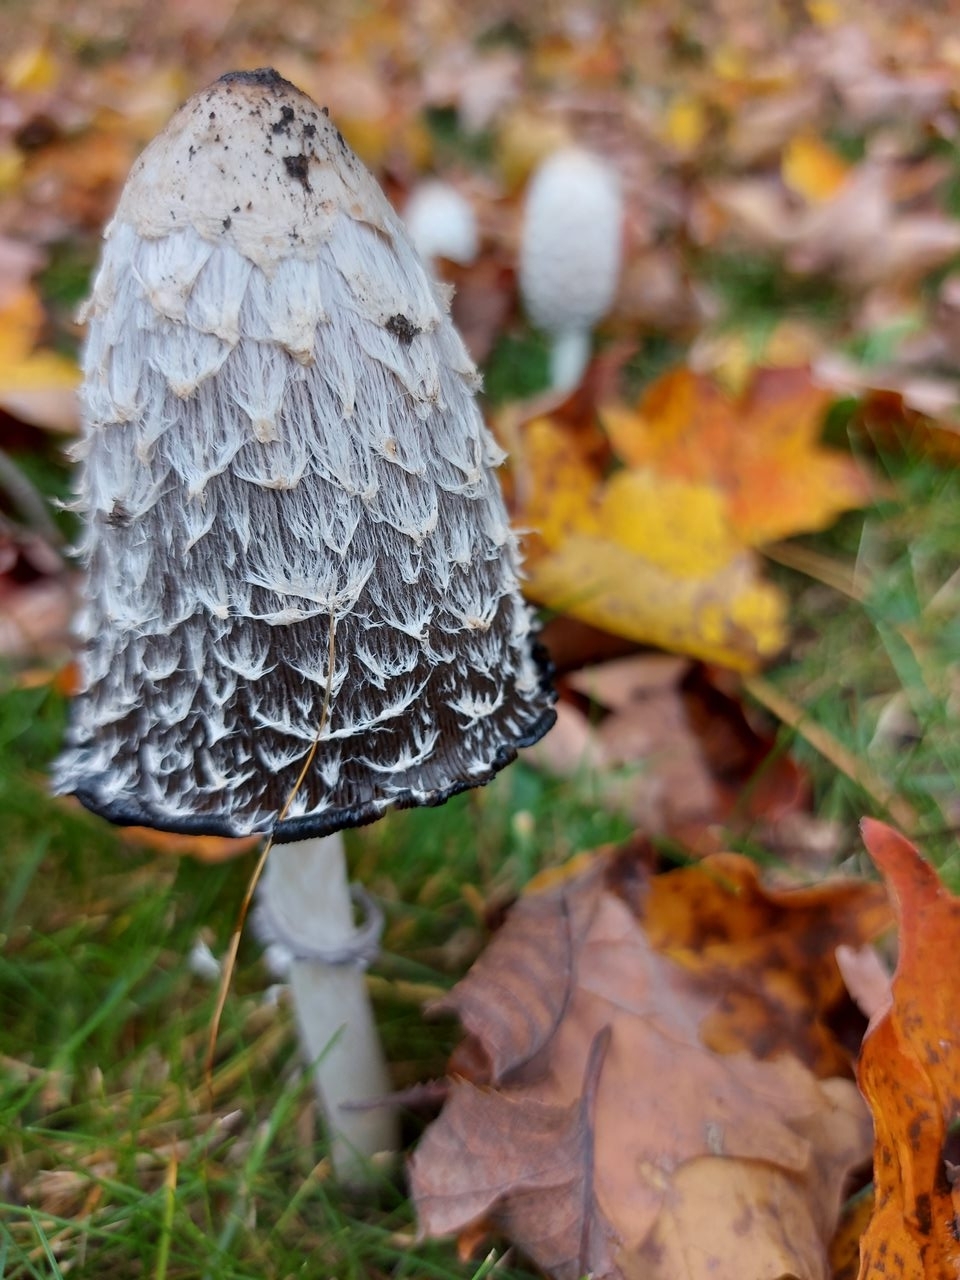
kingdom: Fungi
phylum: Basidiomycota
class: Agaricomycetes
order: Agaricales
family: Agaricaceae
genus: Coprinus
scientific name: Coprinus comatus
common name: Lawyer's wig
